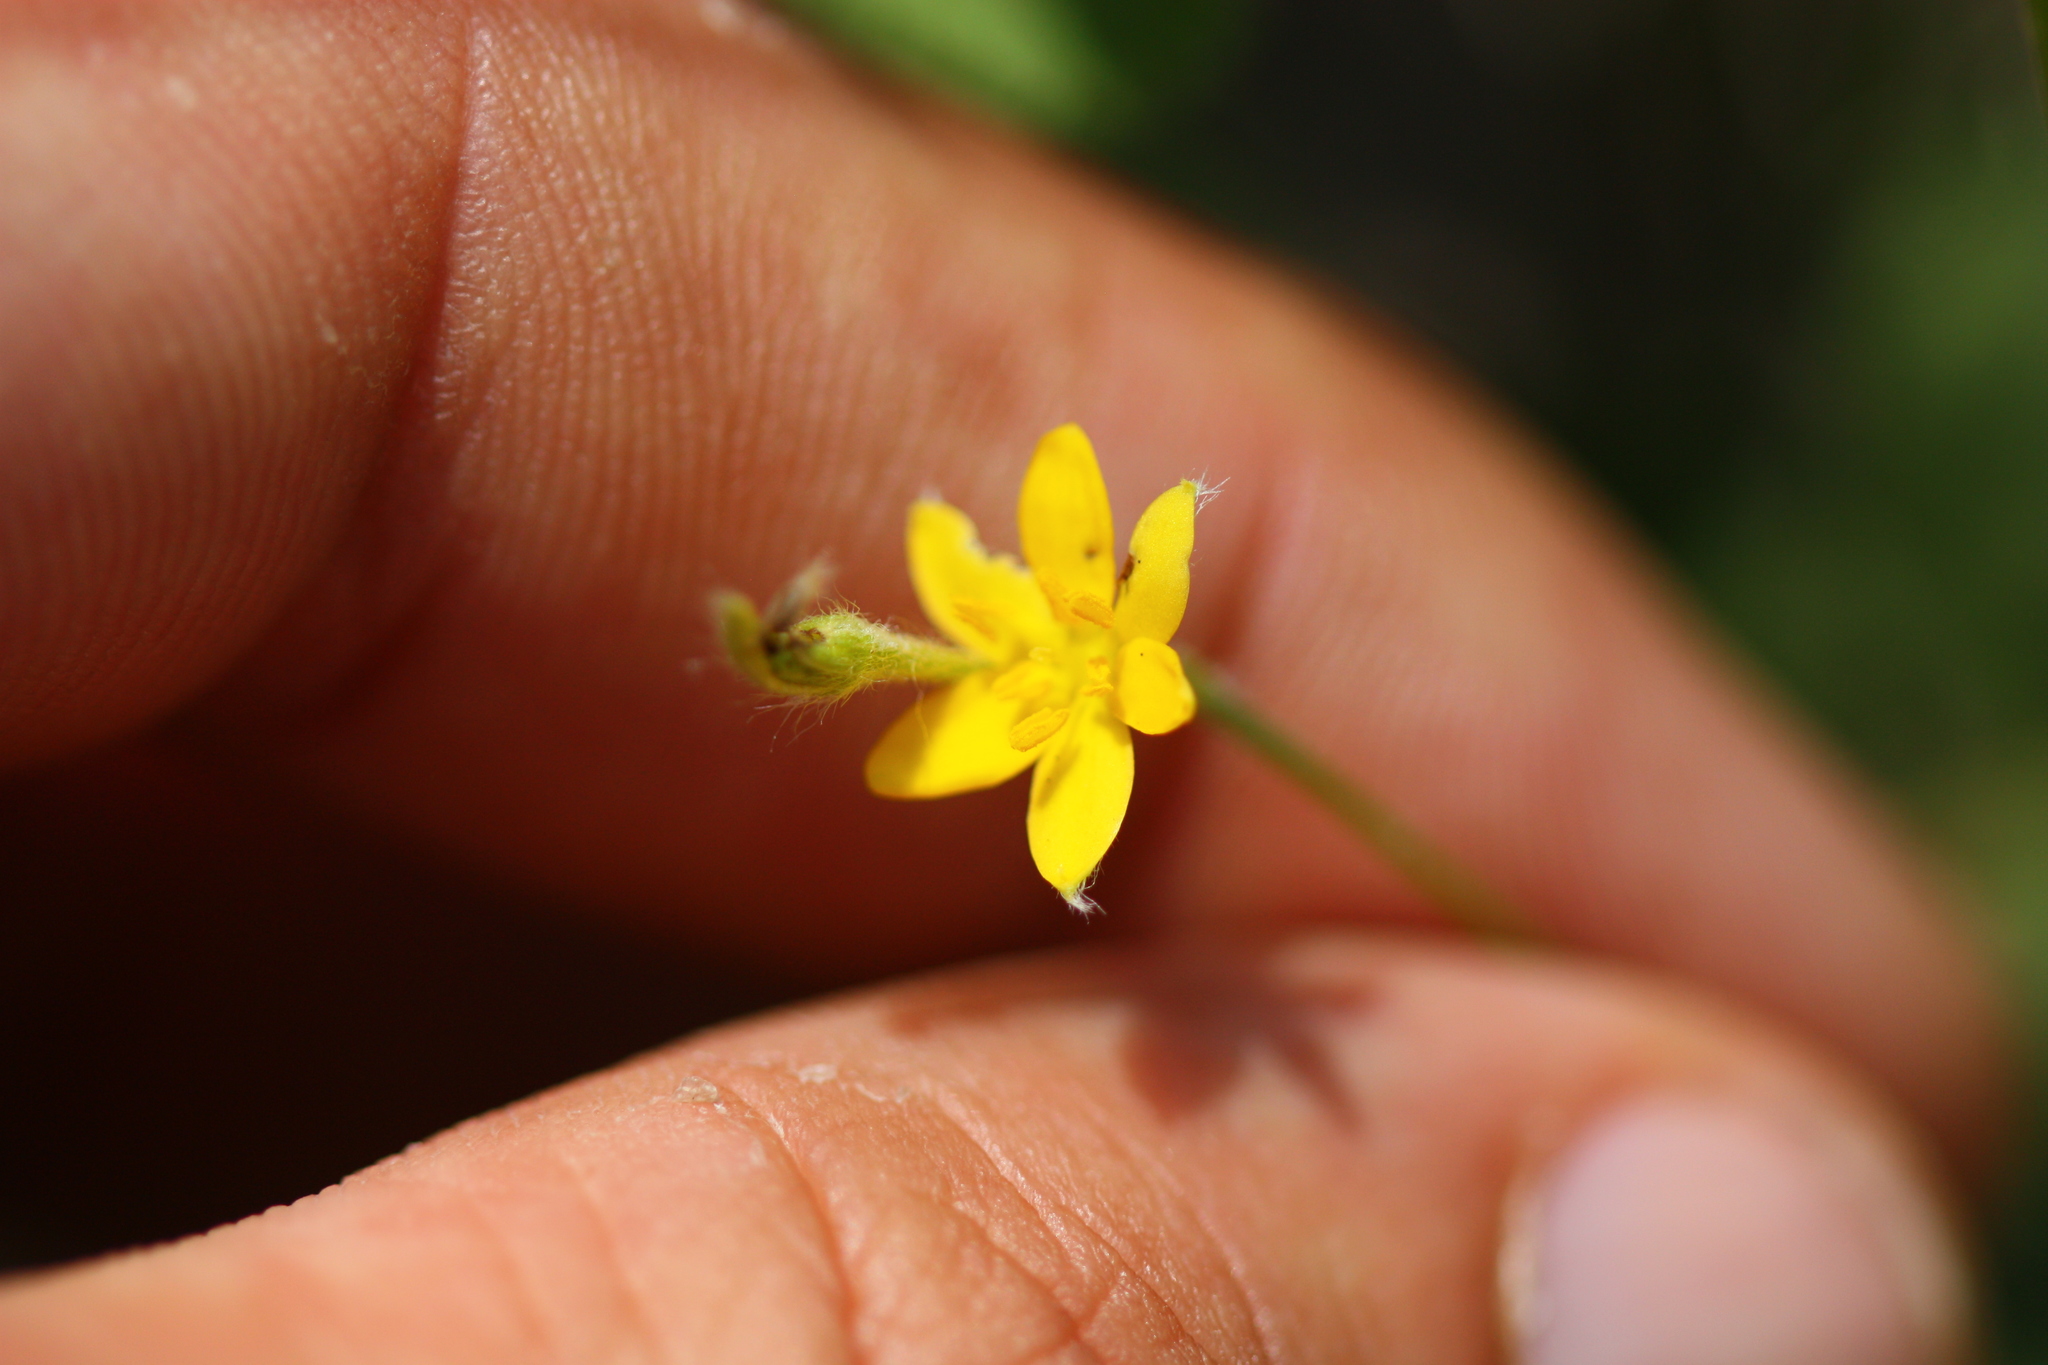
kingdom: Plantae
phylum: Tracheophyta
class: Liliopsida
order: Asparagales
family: Hypoxidaceae
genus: Hypoxis
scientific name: Hypoxis hirsuta
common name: Common goldstar
